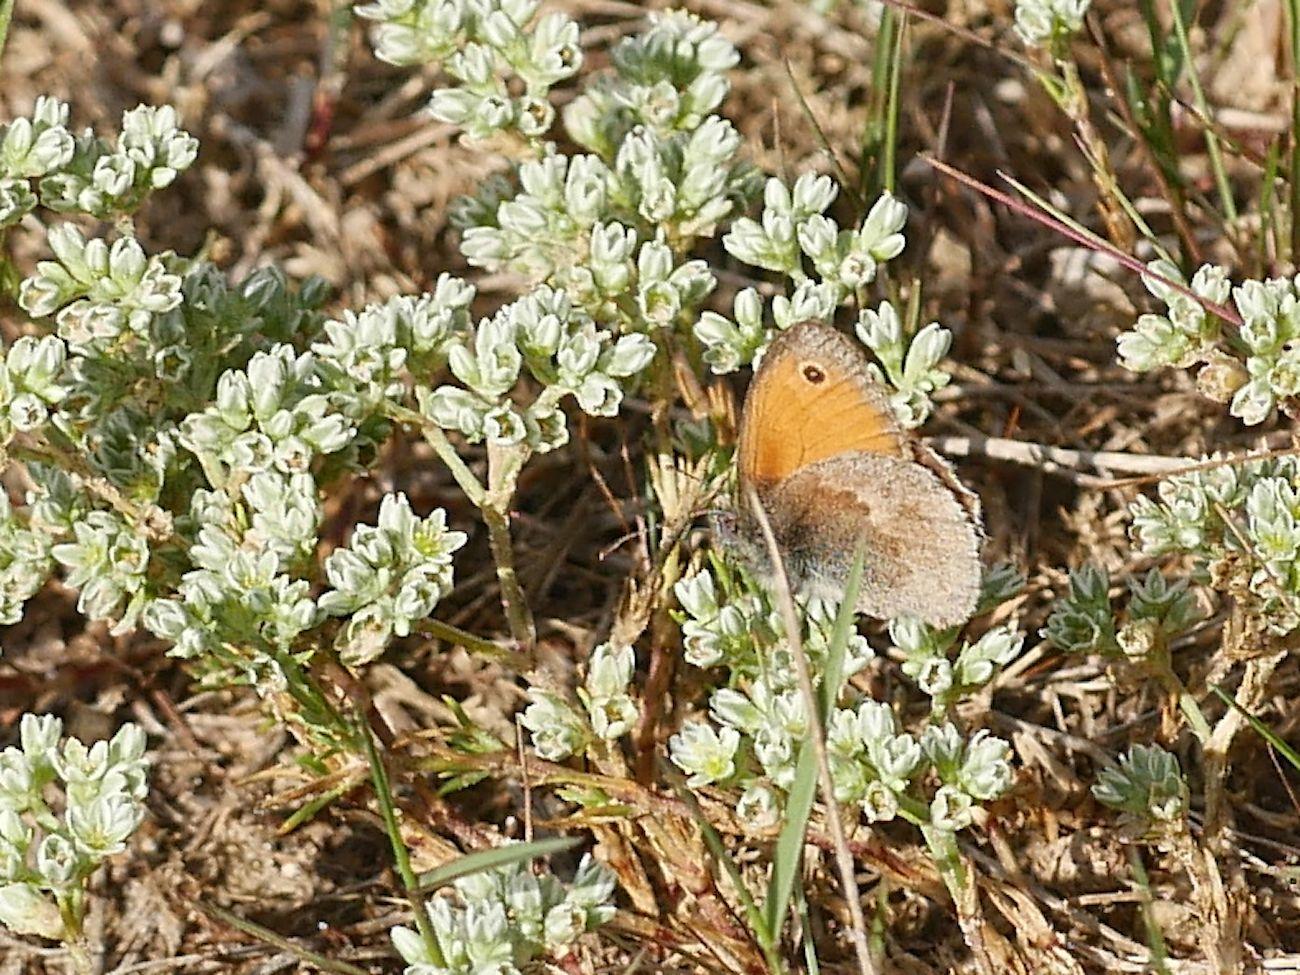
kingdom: Animalia
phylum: Arthropoda
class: Insecta
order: Lepidoptera
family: Nymphalidae
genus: Coenonympha
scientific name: Coenonympha pamphilus
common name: Small heath
